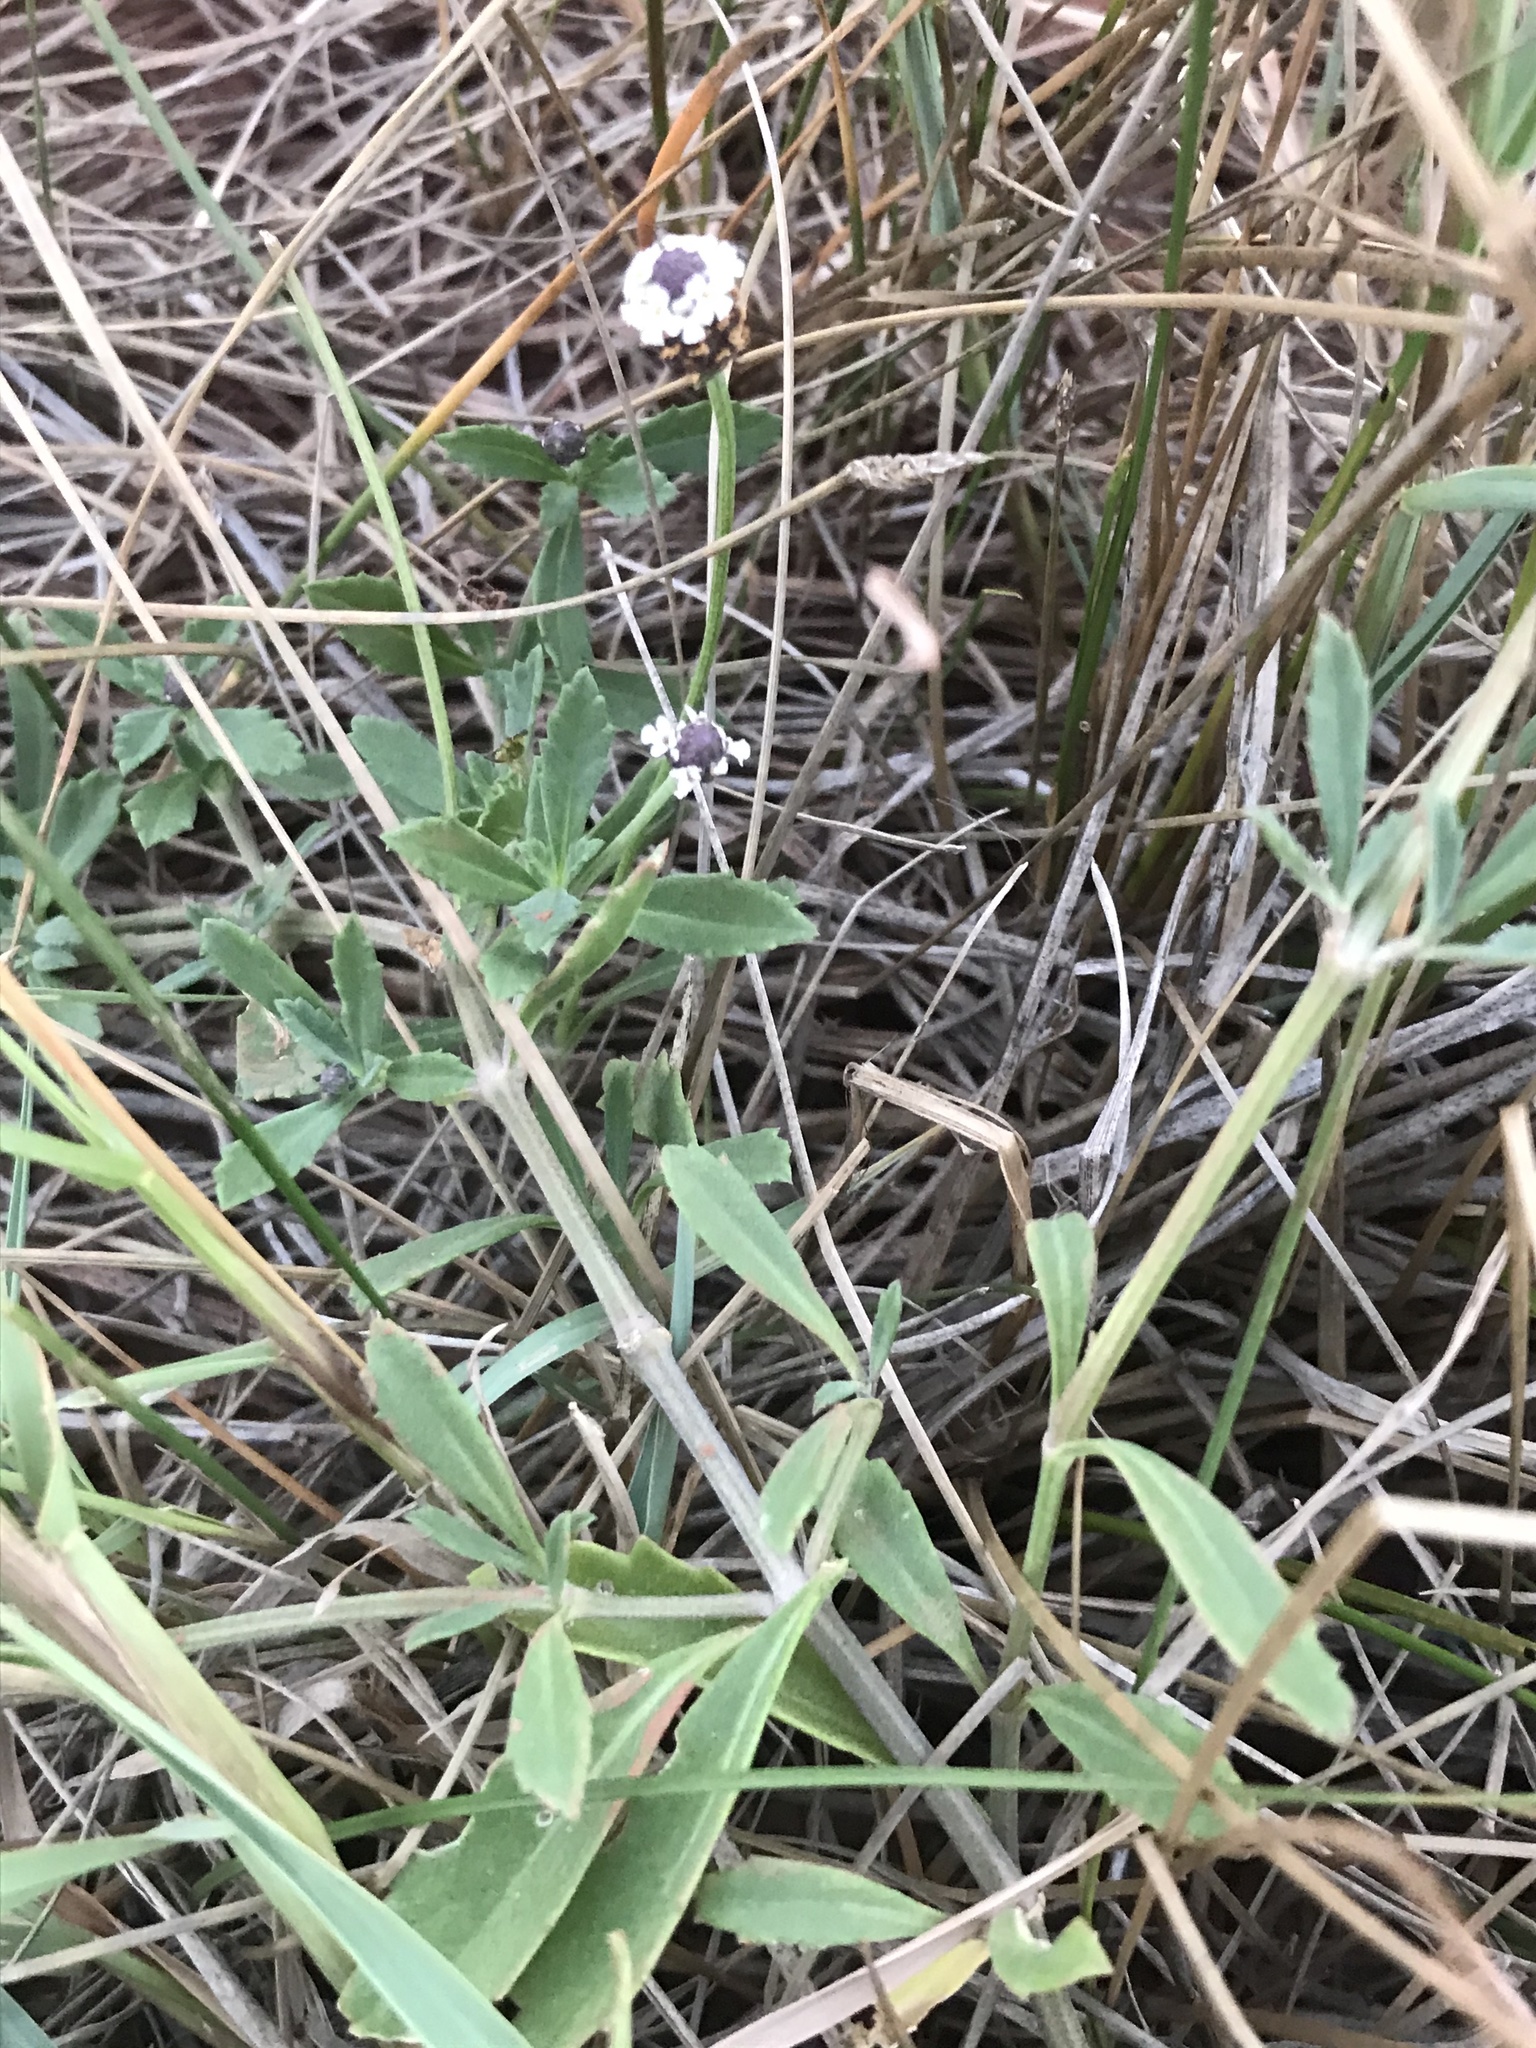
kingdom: Plantae
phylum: Tracheophyta
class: Magnoliopsida
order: Lamiales
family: Verbenaceae
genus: Phyla
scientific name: Phyla nodiflora
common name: Frogfruit
